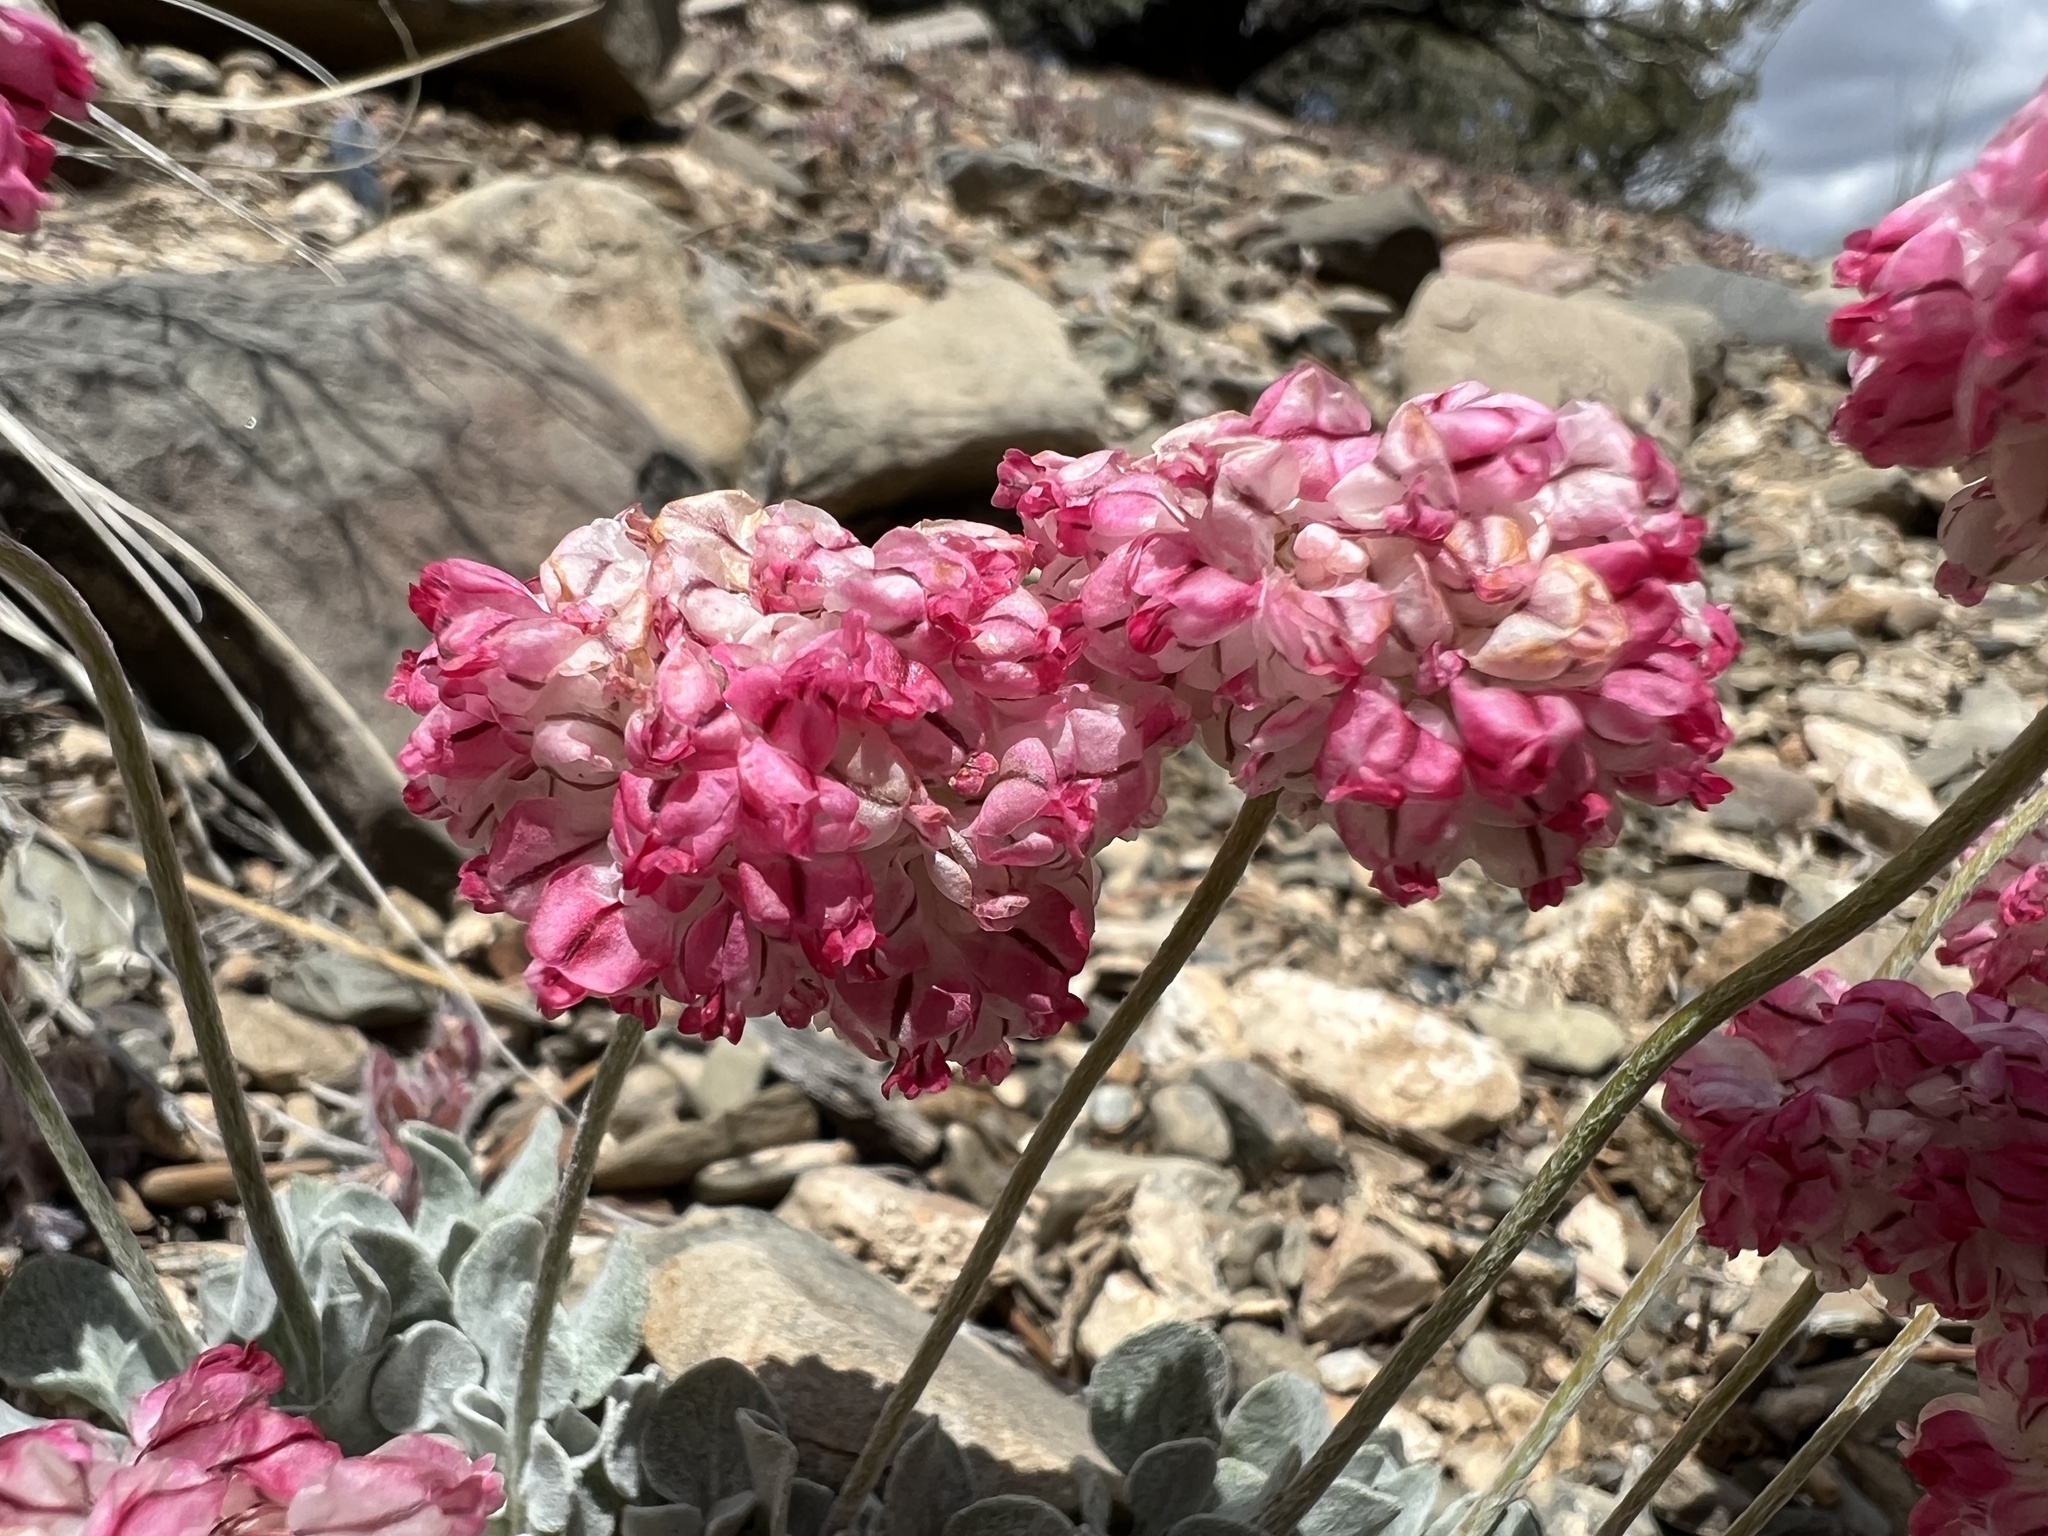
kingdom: Plantae
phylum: Tracheophyta
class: Magnoliopsida
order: Caryophyllales
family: Polygonaceae
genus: Eriogonum
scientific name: Eriogonum ovalifolium
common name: Cushion buckwheat
